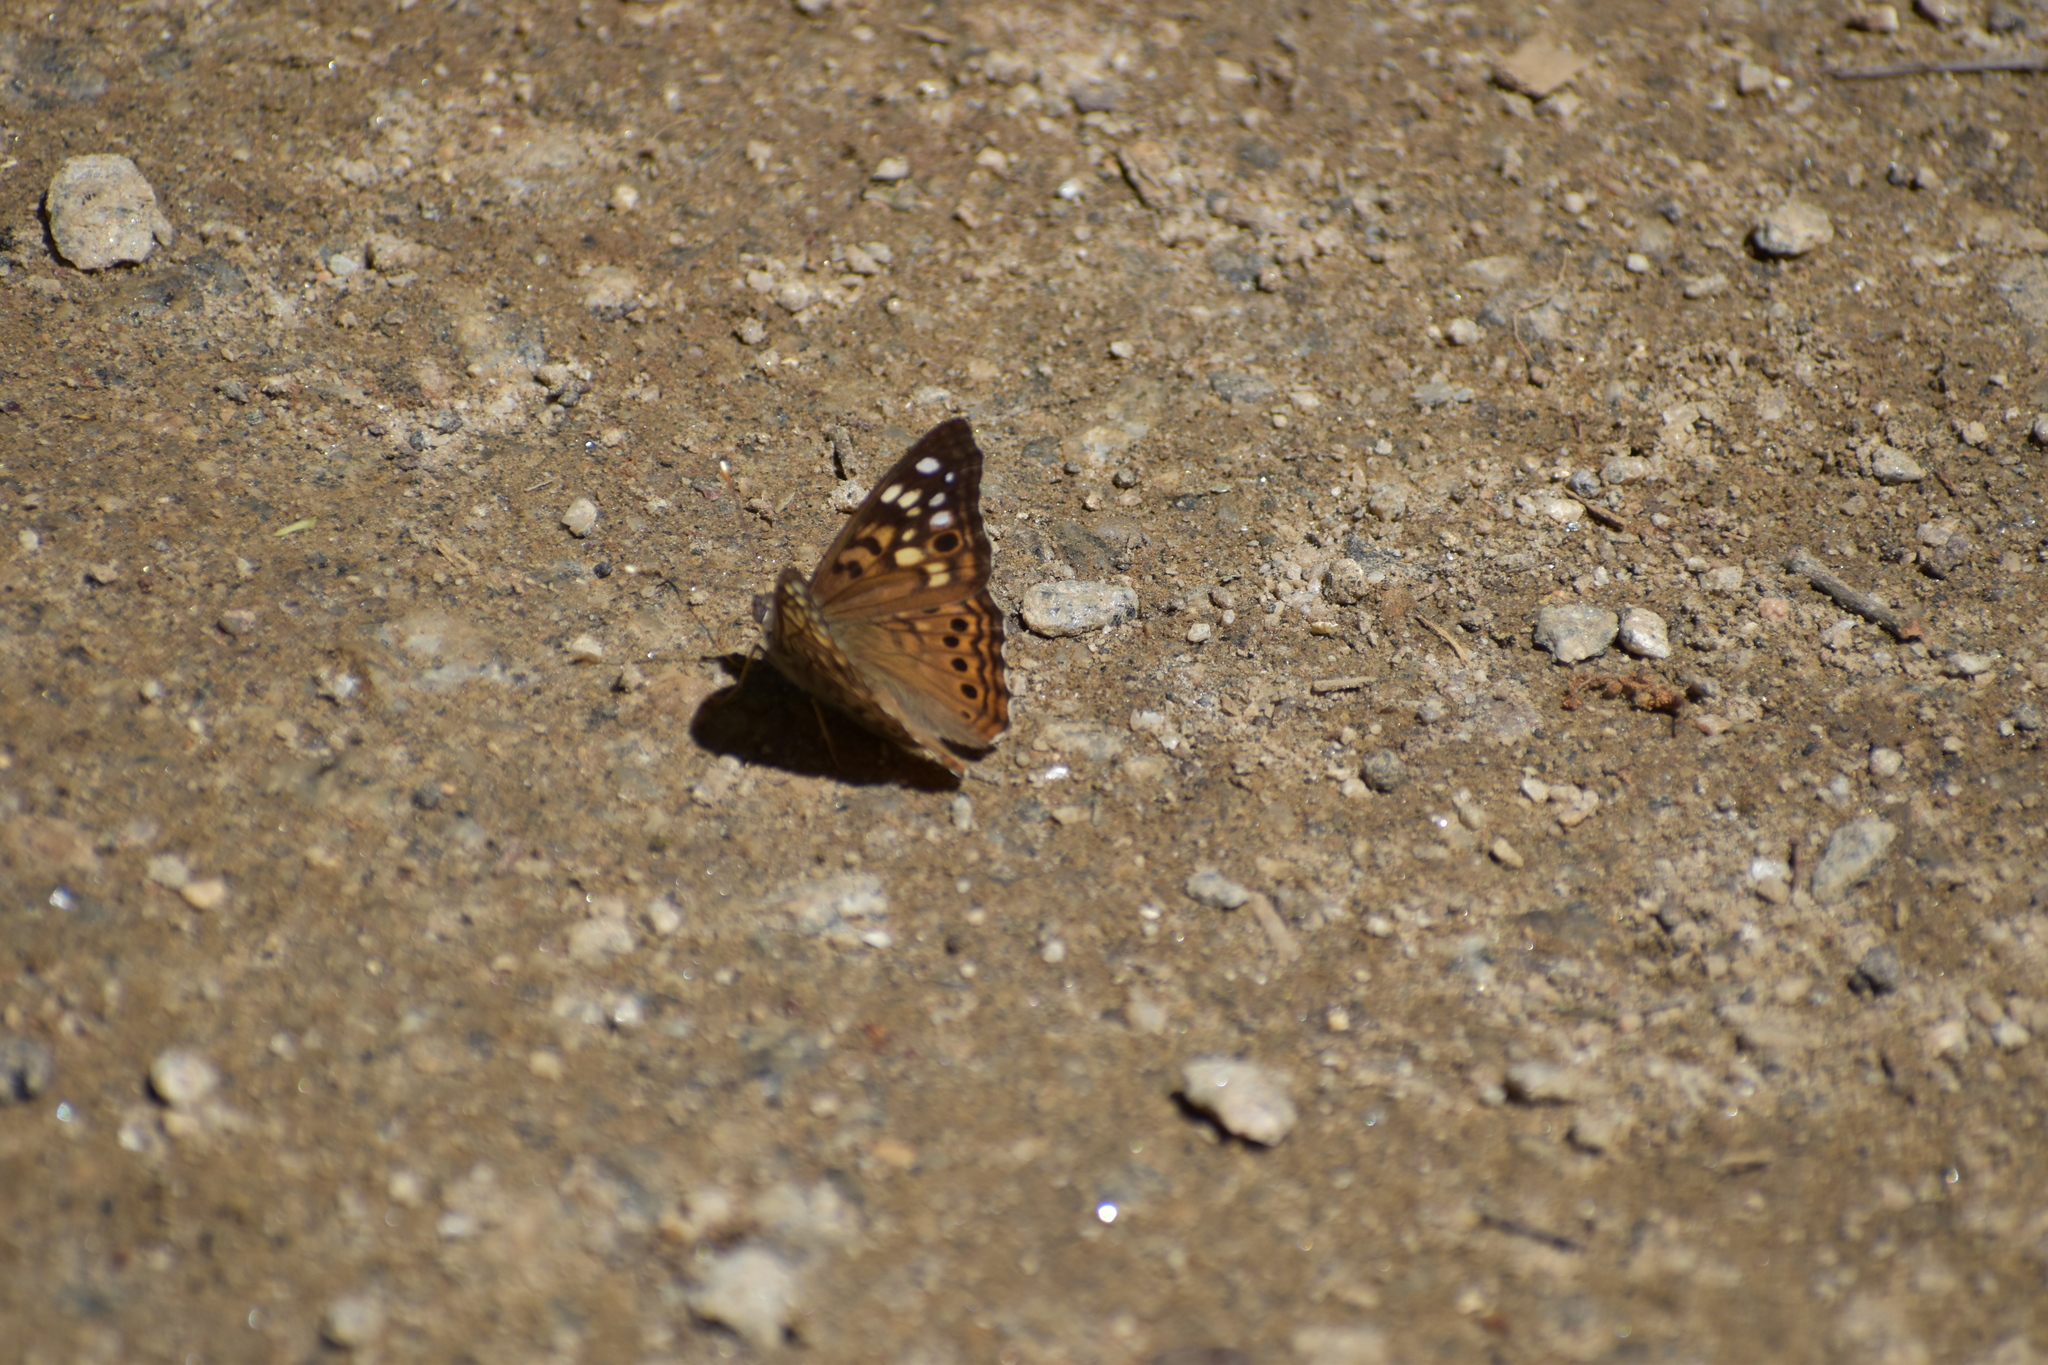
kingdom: Animalia
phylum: Arthropoda
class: Insecta
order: Lepidoptera
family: Nymphalidae
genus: Asterocampa
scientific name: Asterocampa celtis
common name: Hackberry emperor
